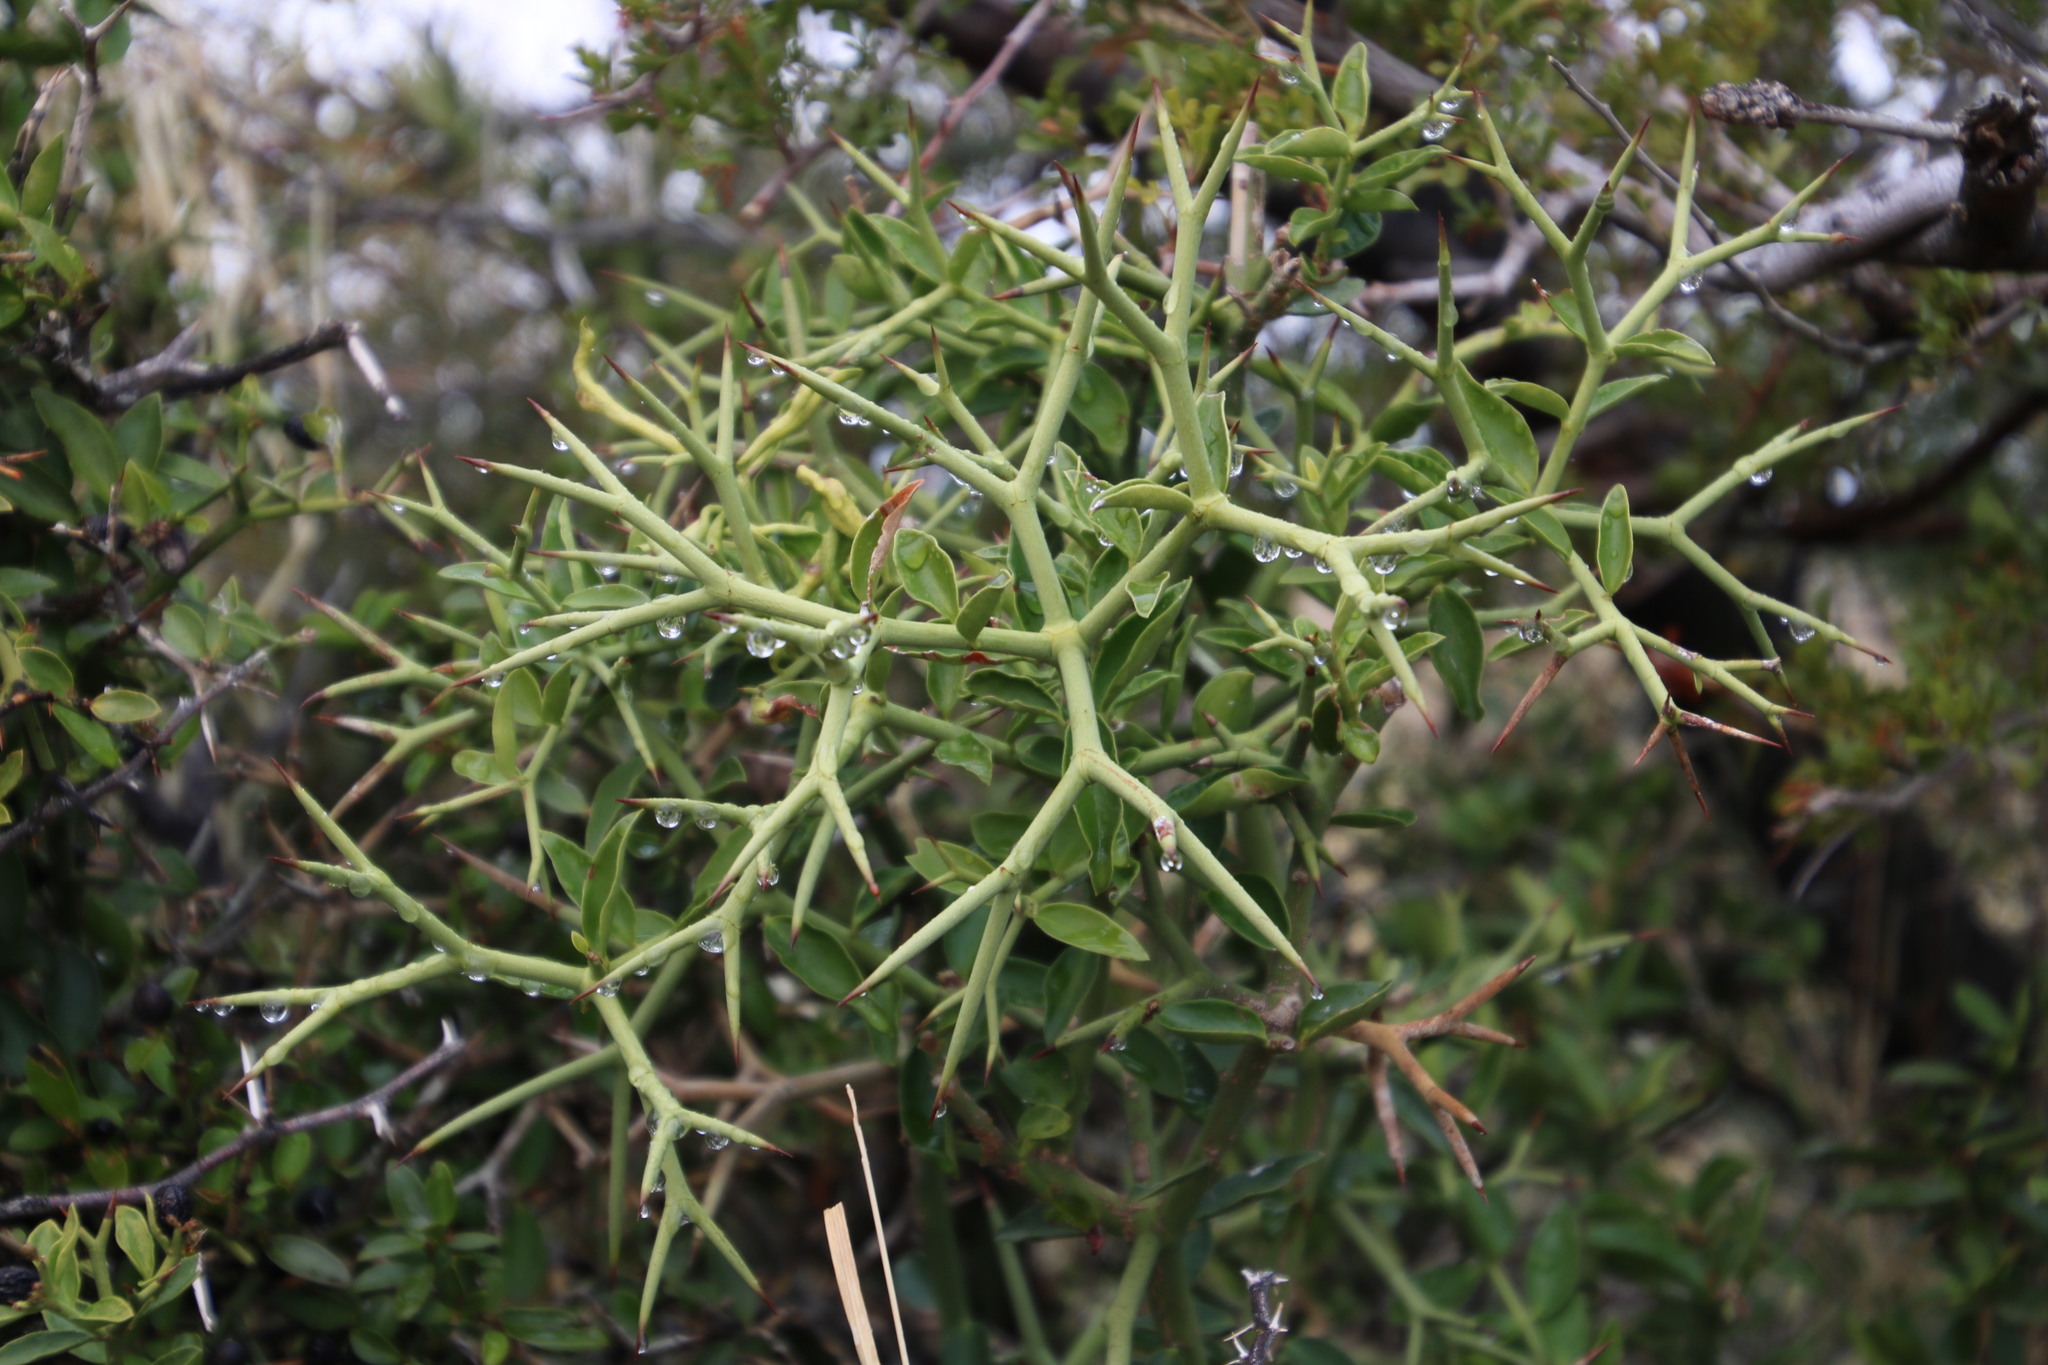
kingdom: Plantae
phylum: Tracheophyta
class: Magnoliopsida
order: Gentianales
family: Apocynaceae
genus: Carissa
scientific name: Carissa haematocarpa
